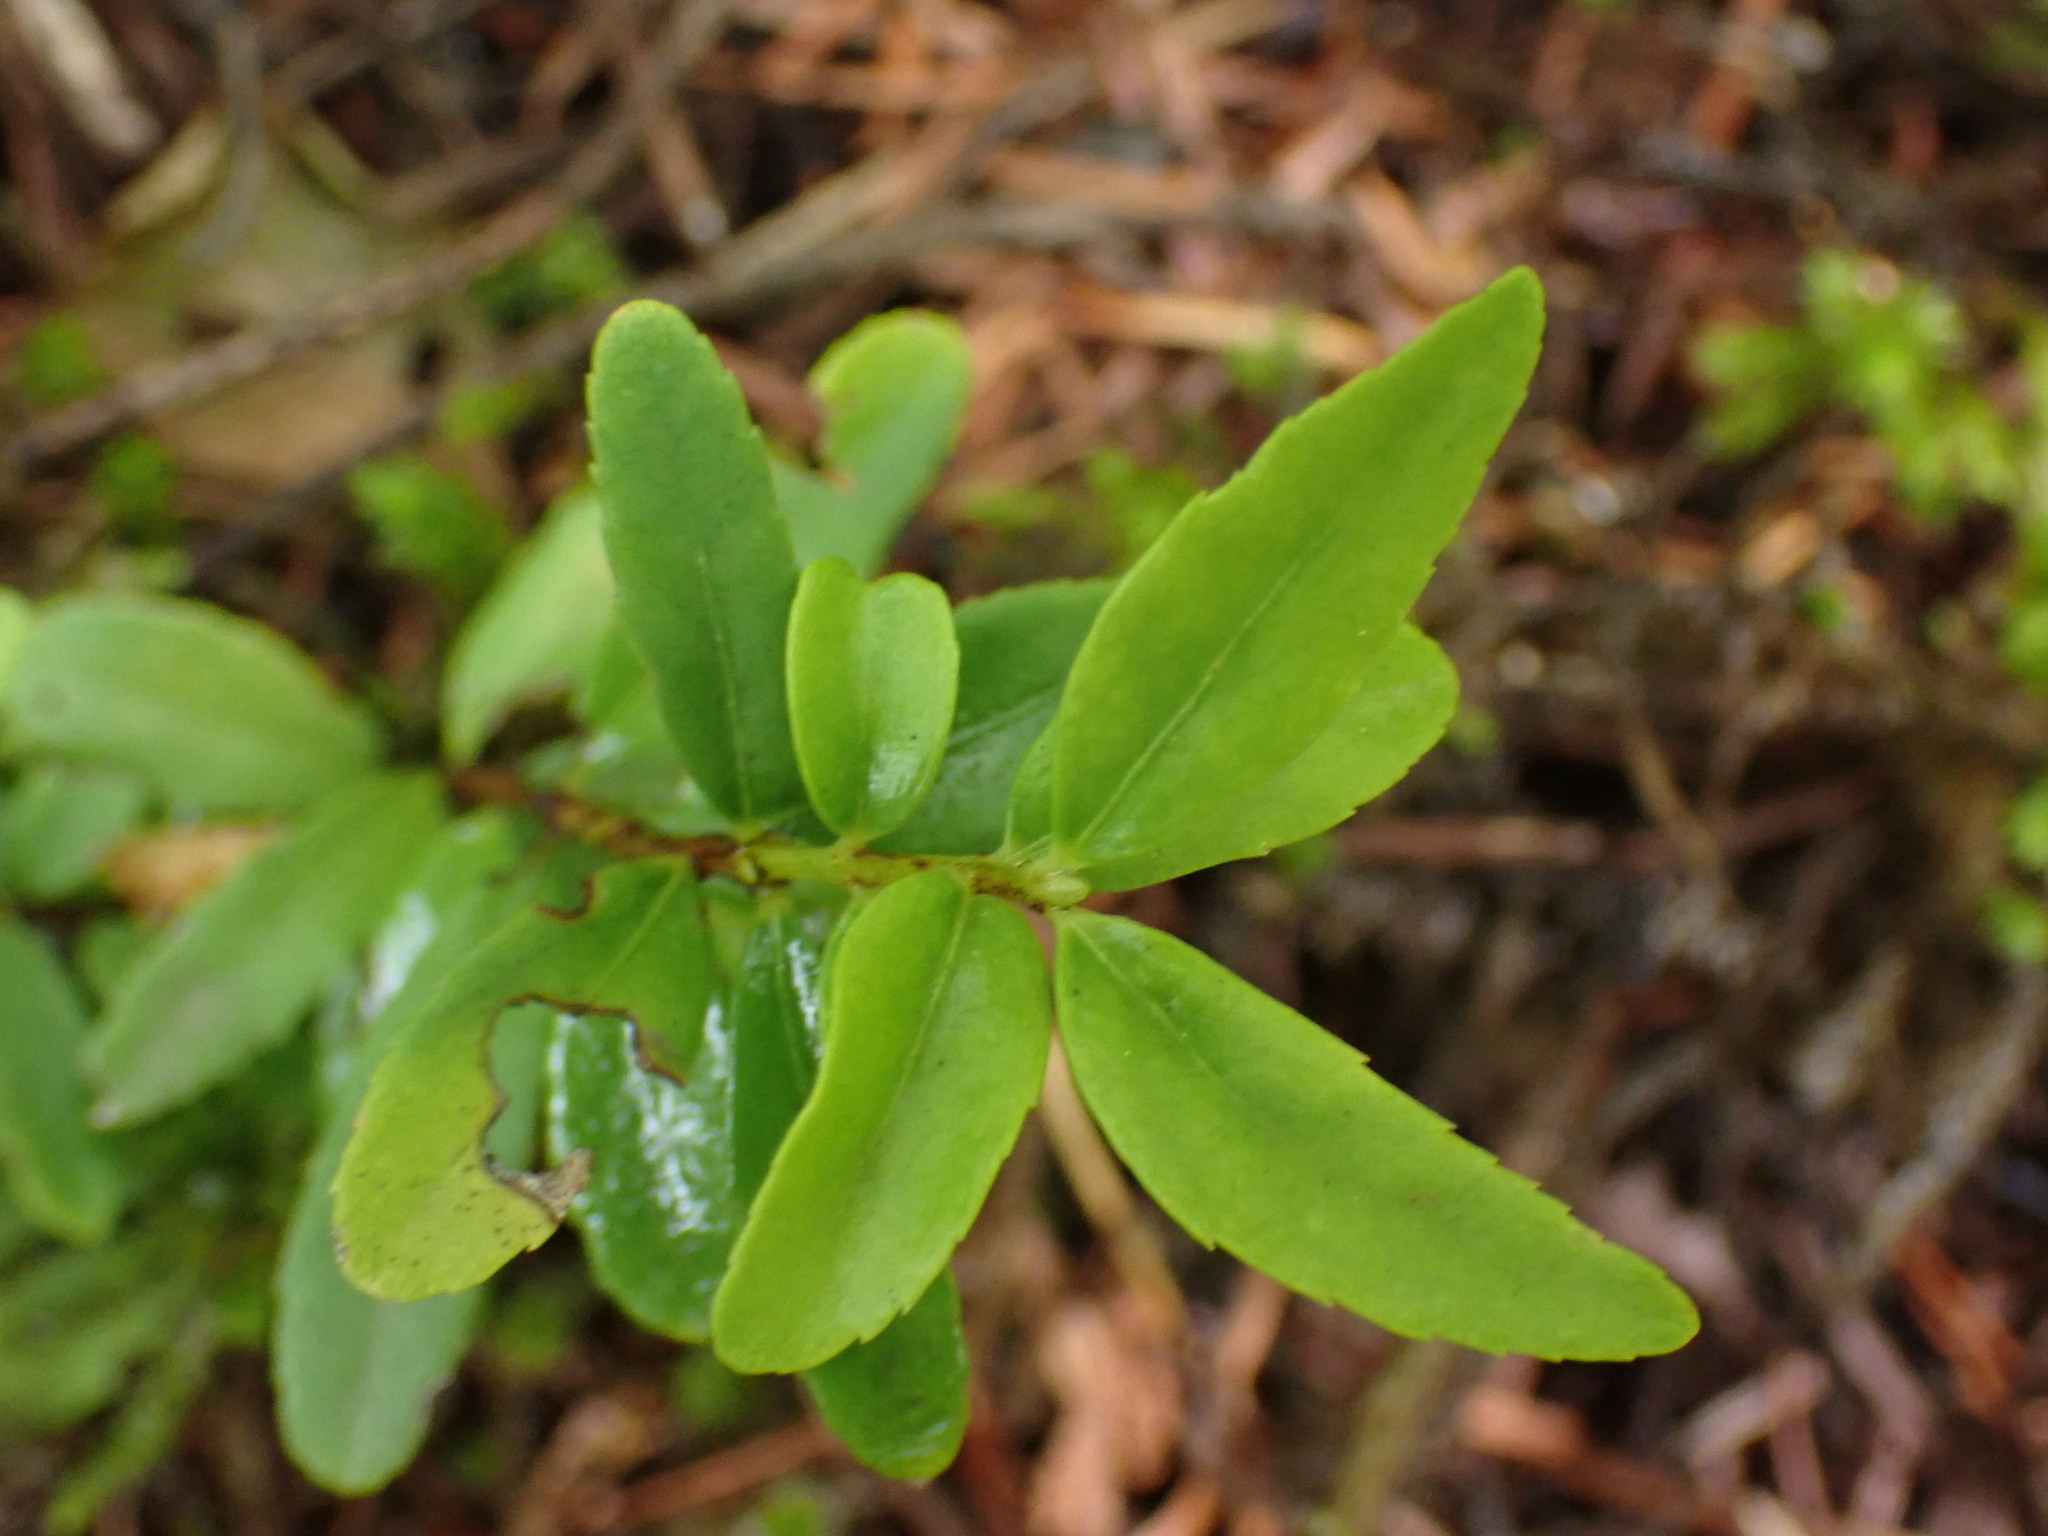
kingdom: Plantae
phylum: Tracheophyta
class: Magnoliopsida
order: Celastrales
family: Celastraceae
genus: Paxistima
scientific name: Paxistima myrsinites
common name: Mountain-lover
